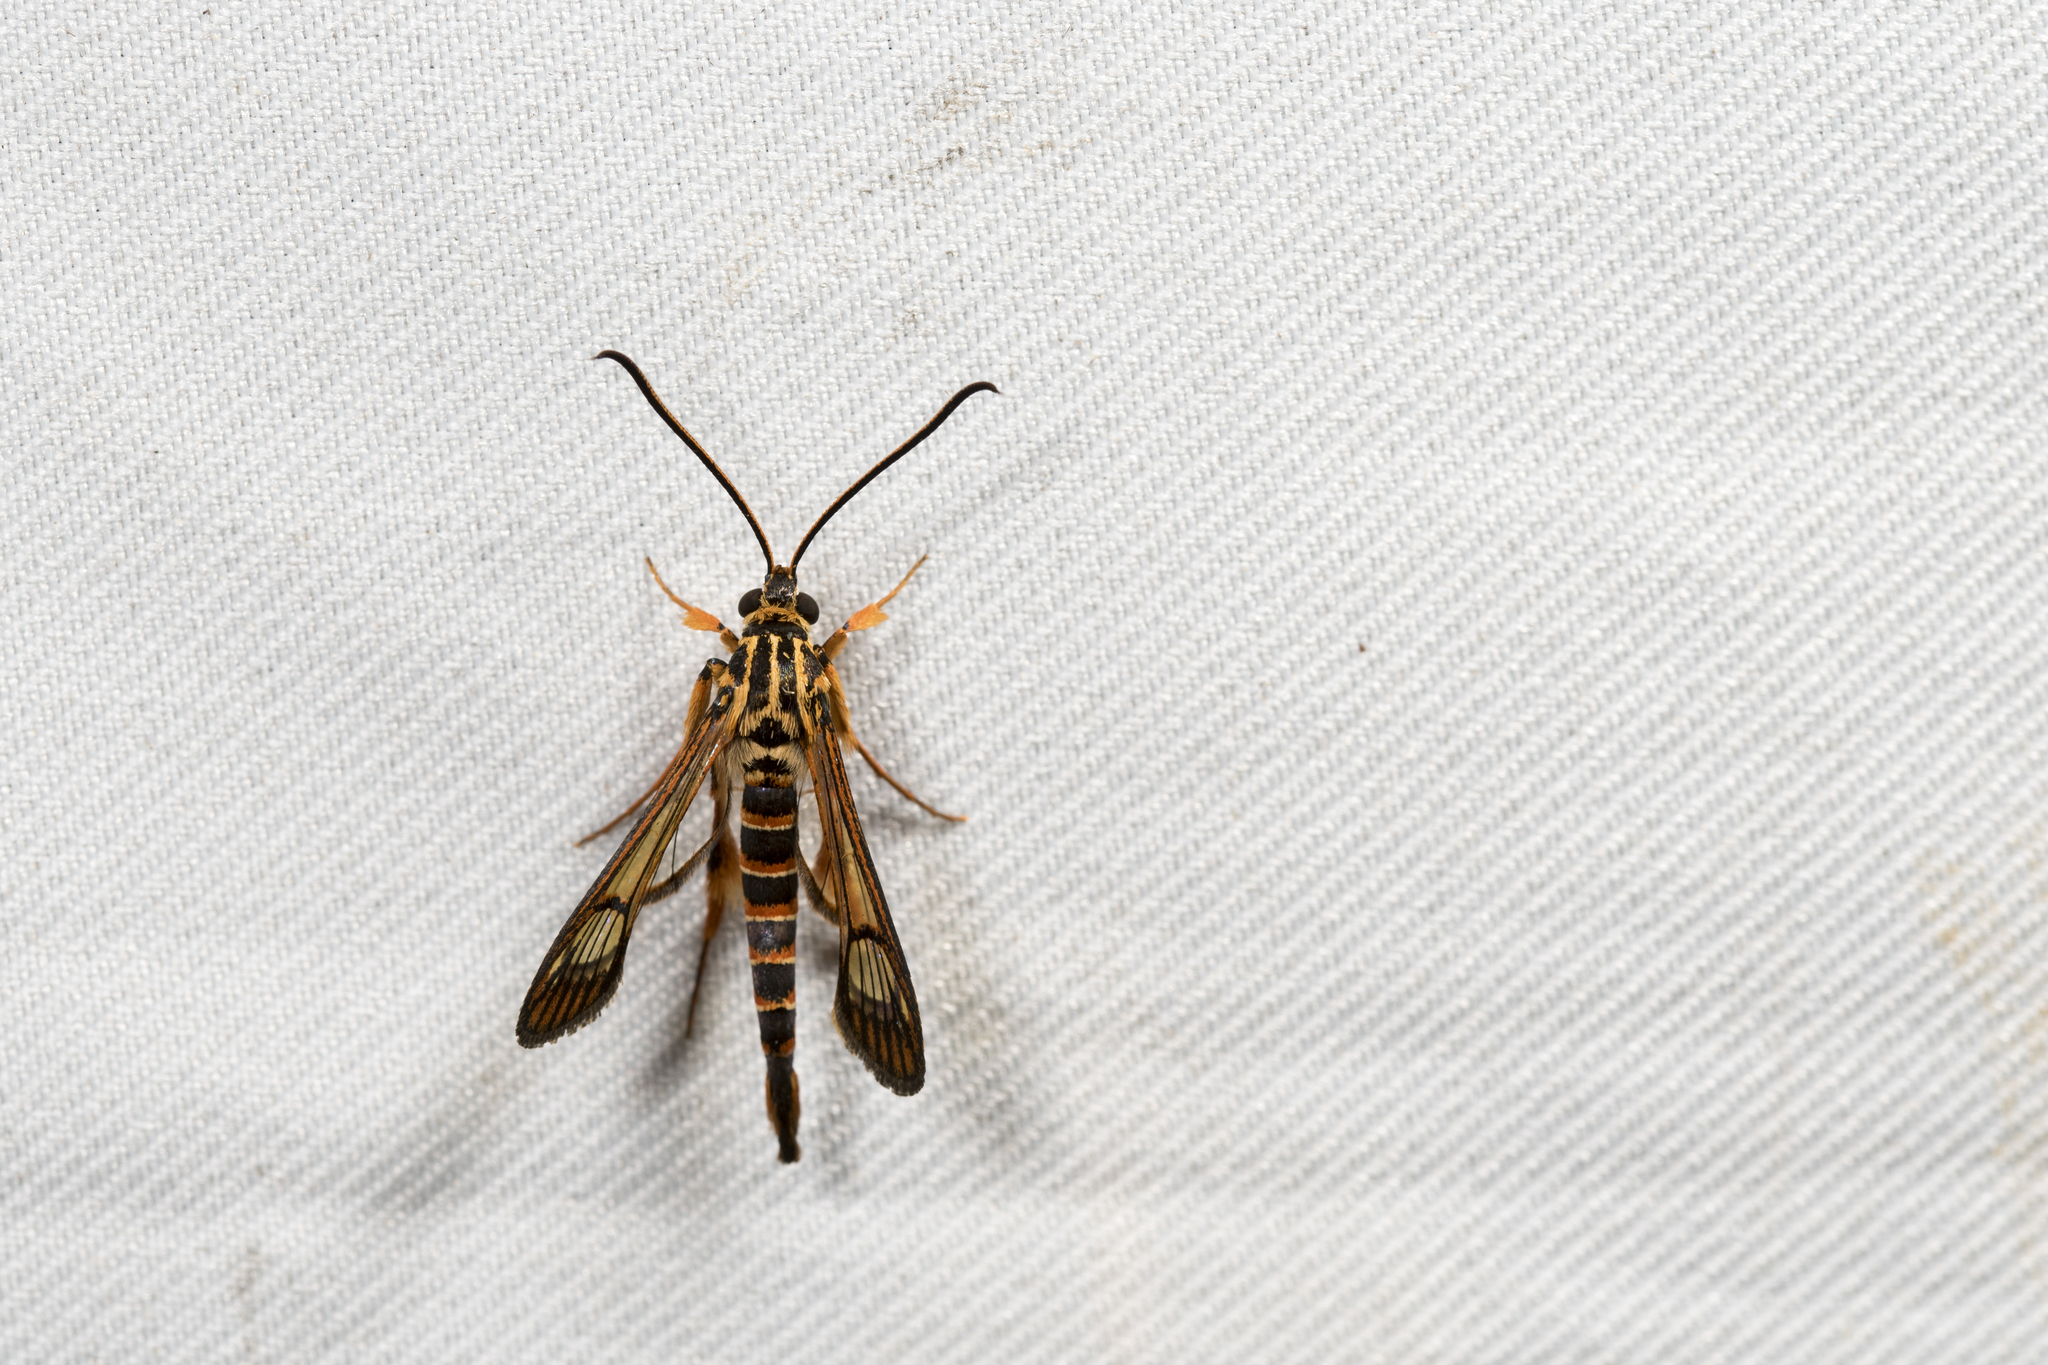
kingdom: Animalia
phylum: Arthropoda
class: Insecta
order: Lepidoptera
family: Sesiidae
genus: Ichneumenoptera
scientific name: Ichneumenoptera gryphus
